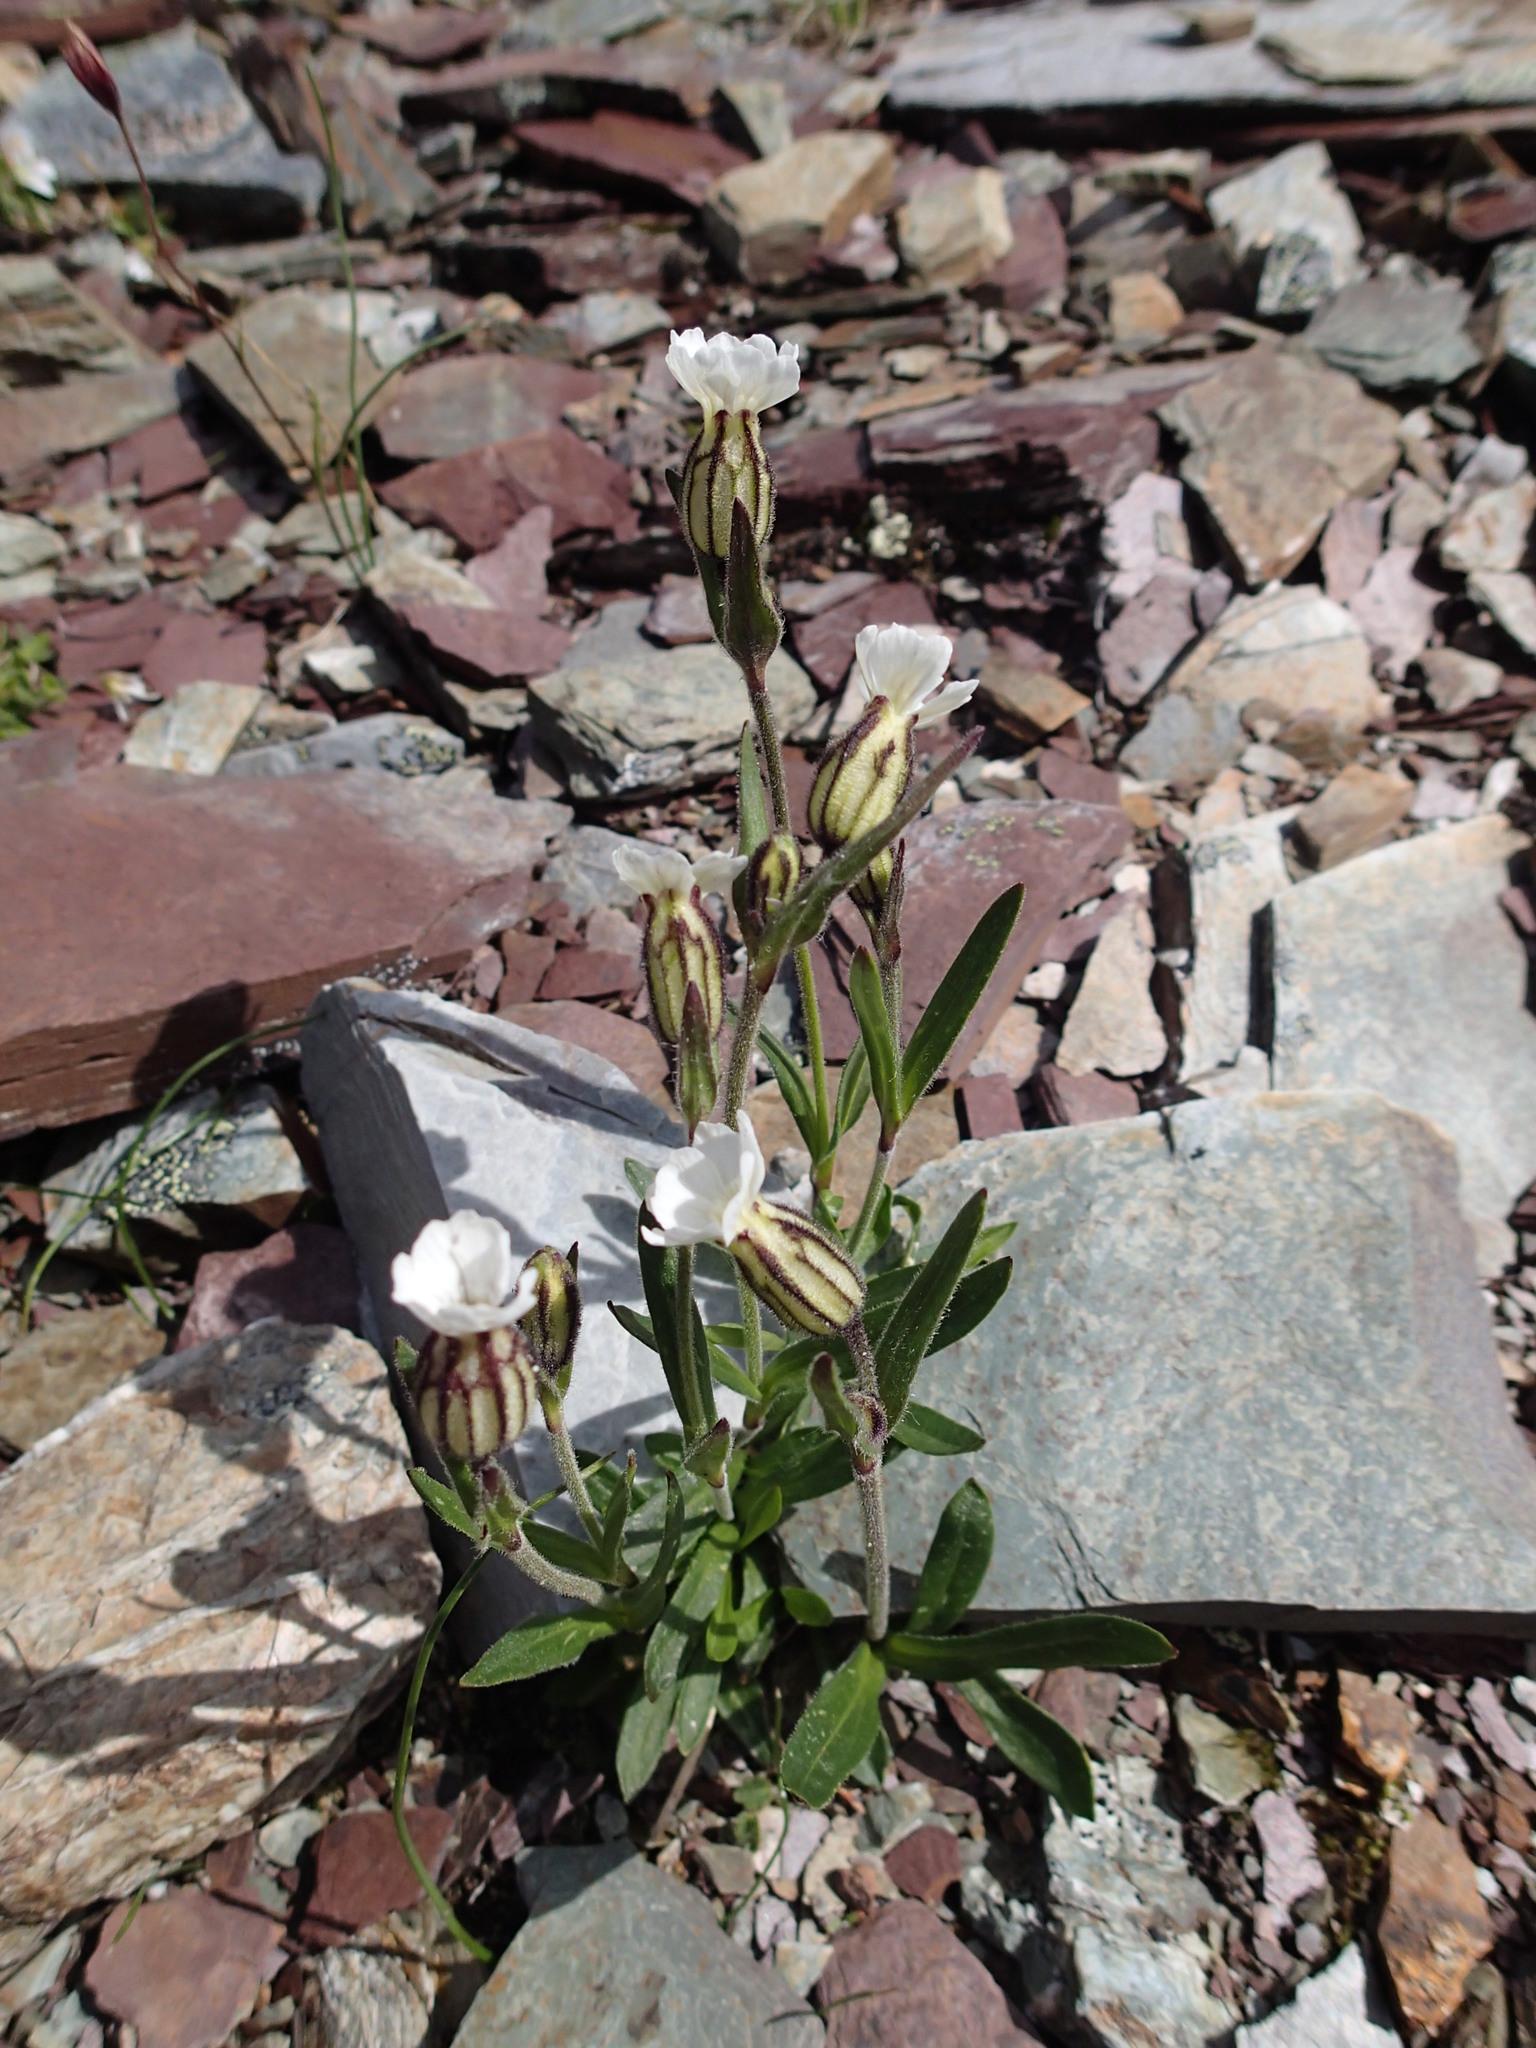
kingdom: Plantae
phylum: Tracheophyta
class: Magnoliopsida
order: Caryophyllales
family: Caryophyllaceae
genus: Silene
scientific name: Silene involucrata
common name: Greater arctic campion
